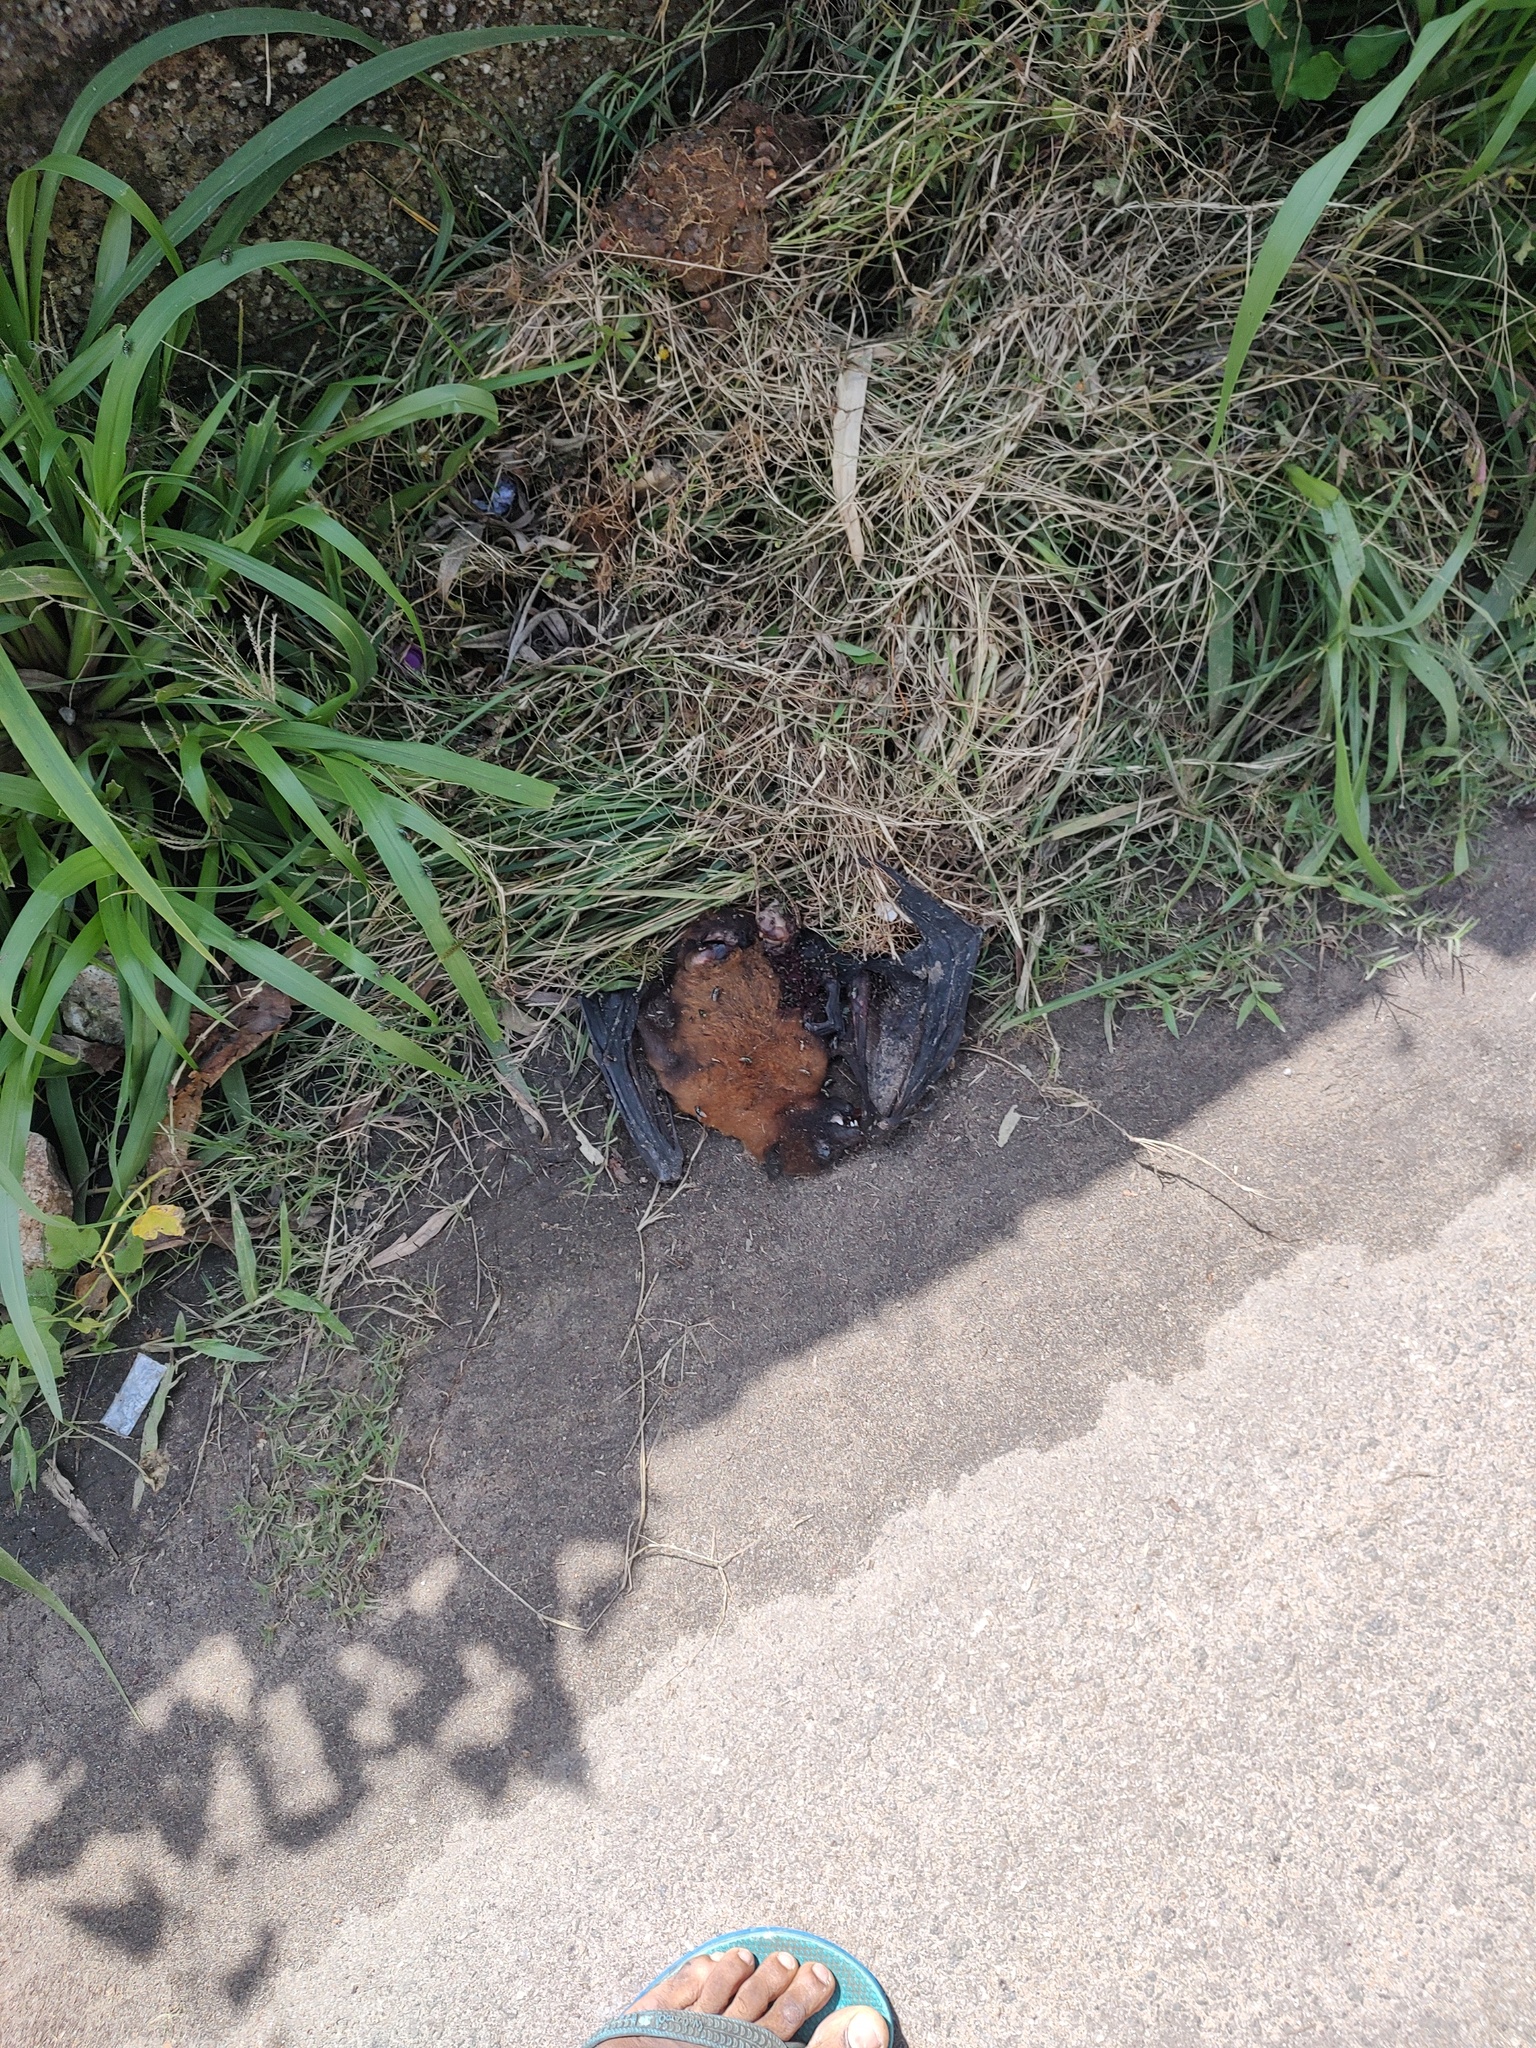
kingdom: Animalia
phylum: Chordata
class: Mammalia
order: Chiroptera
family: Pteropodidae
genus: Pteropus
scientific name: Pteropus vampyrus
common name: Large flying fox
